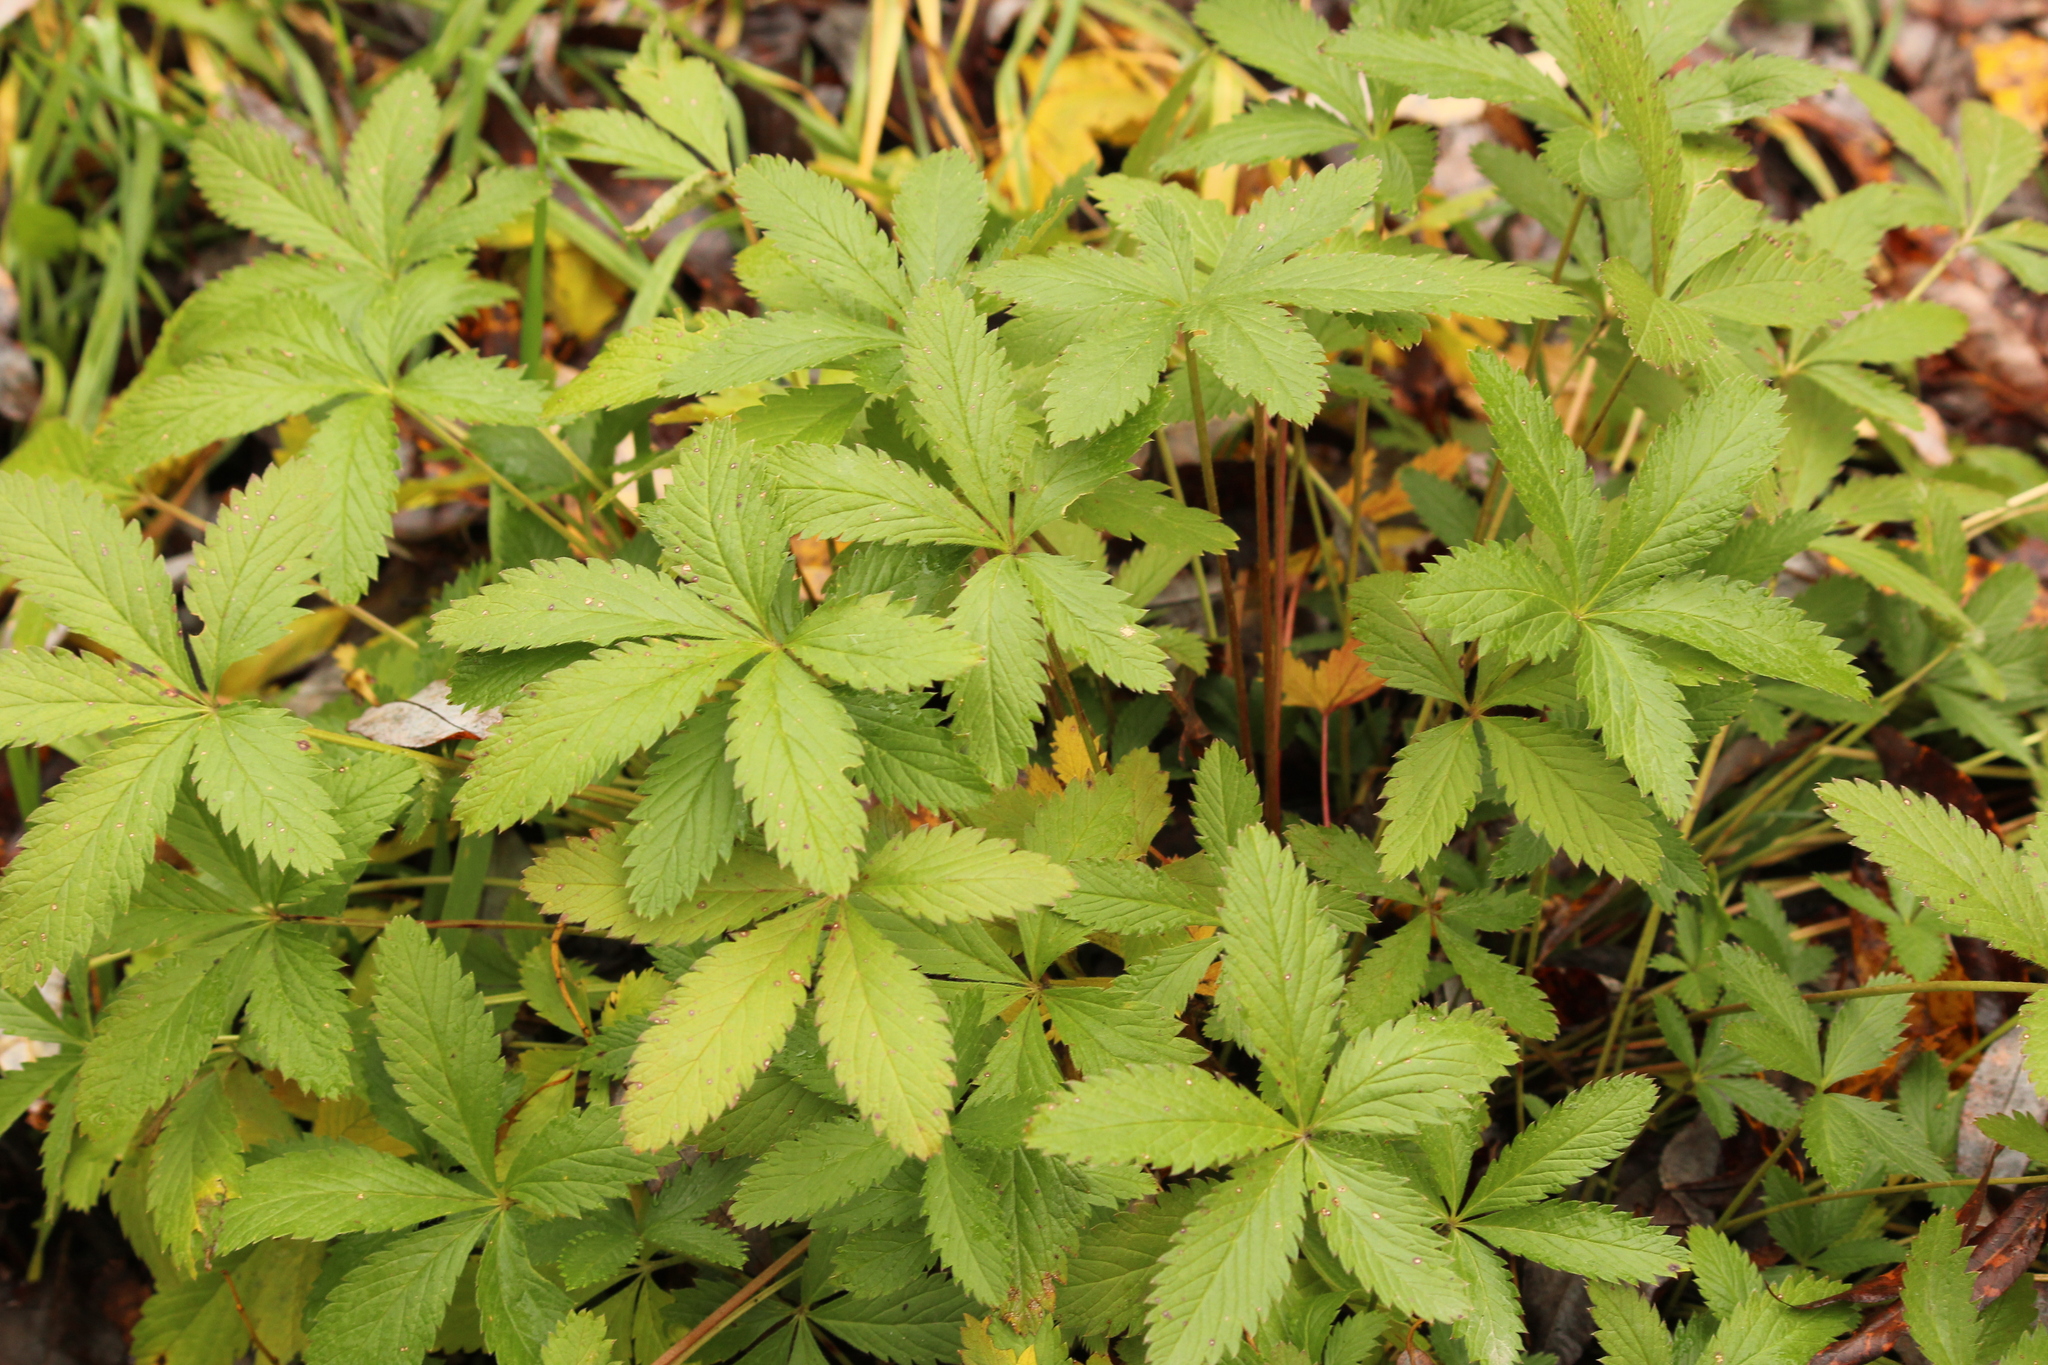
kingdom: Plantae
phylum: Tracheophyta
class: Magnoliopsida
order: Rosales
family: Rosaceae
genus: Potentilla
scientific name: Potentilla chrysantha
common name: Thuringian cinquefoil
